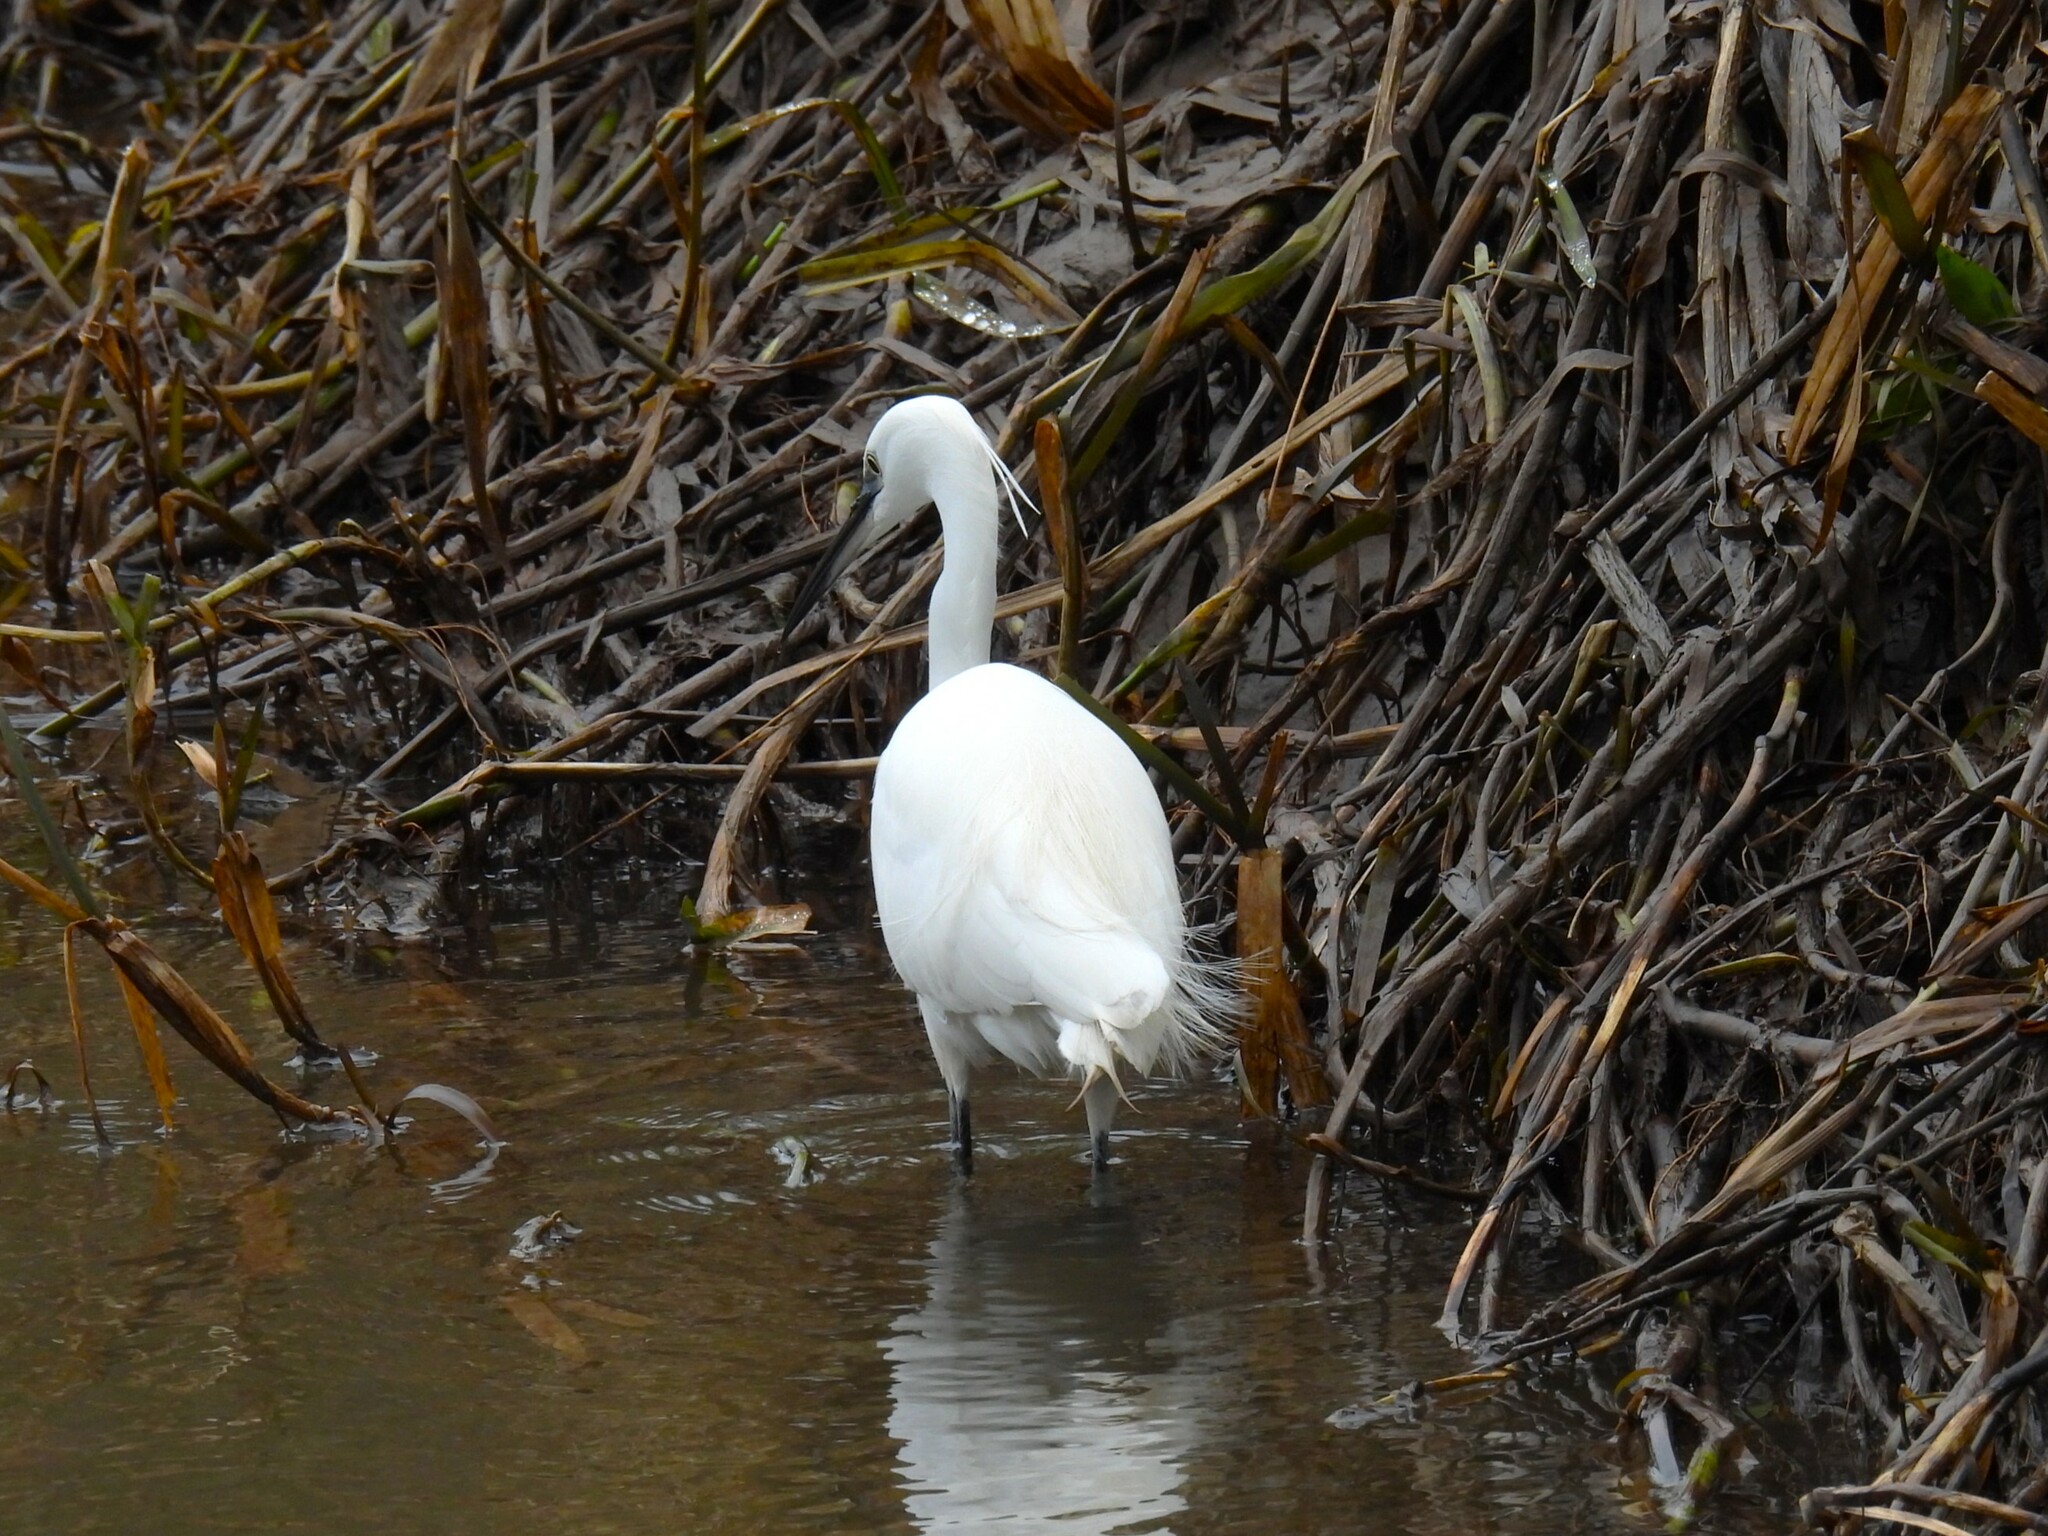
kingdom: Animalia
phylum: Chordata
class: Aves
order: Pelecaniformes
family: Ardeidae
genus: Egretta
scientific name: Egretta garzetta
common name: Little egret
